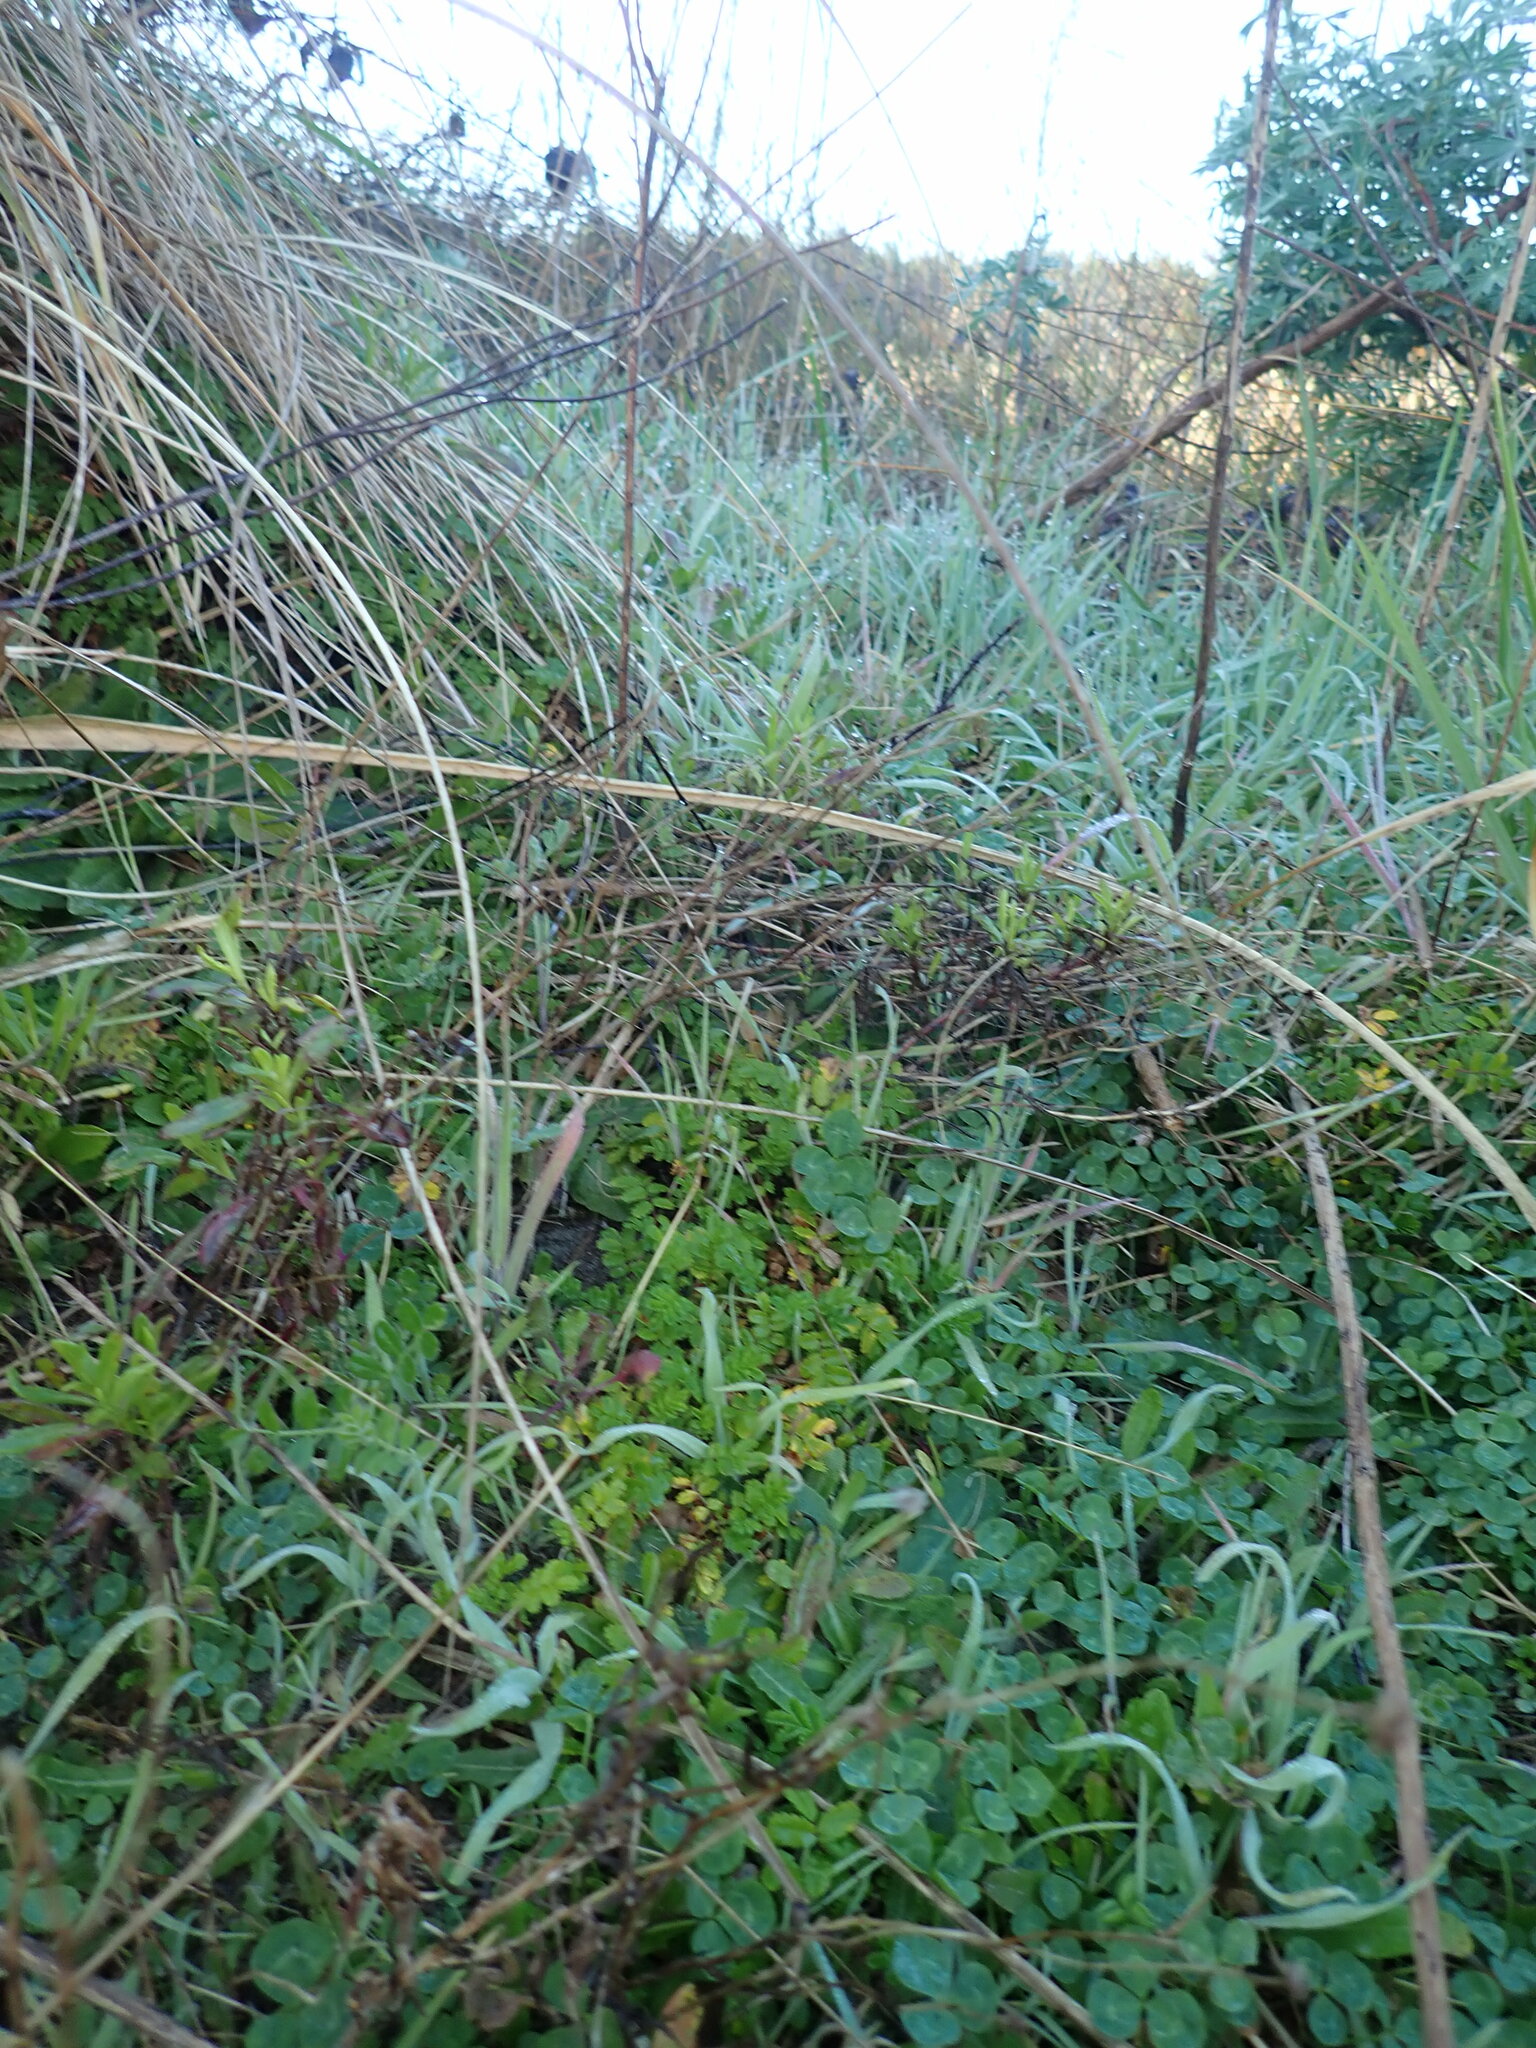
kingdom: Plantae
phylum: Tracheophyta
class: Magnoliopsida
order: Rosales
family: Rosaceae
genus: Acaena
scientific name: Acaena novae-zelandiae
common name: Pirri-pirri-bur
